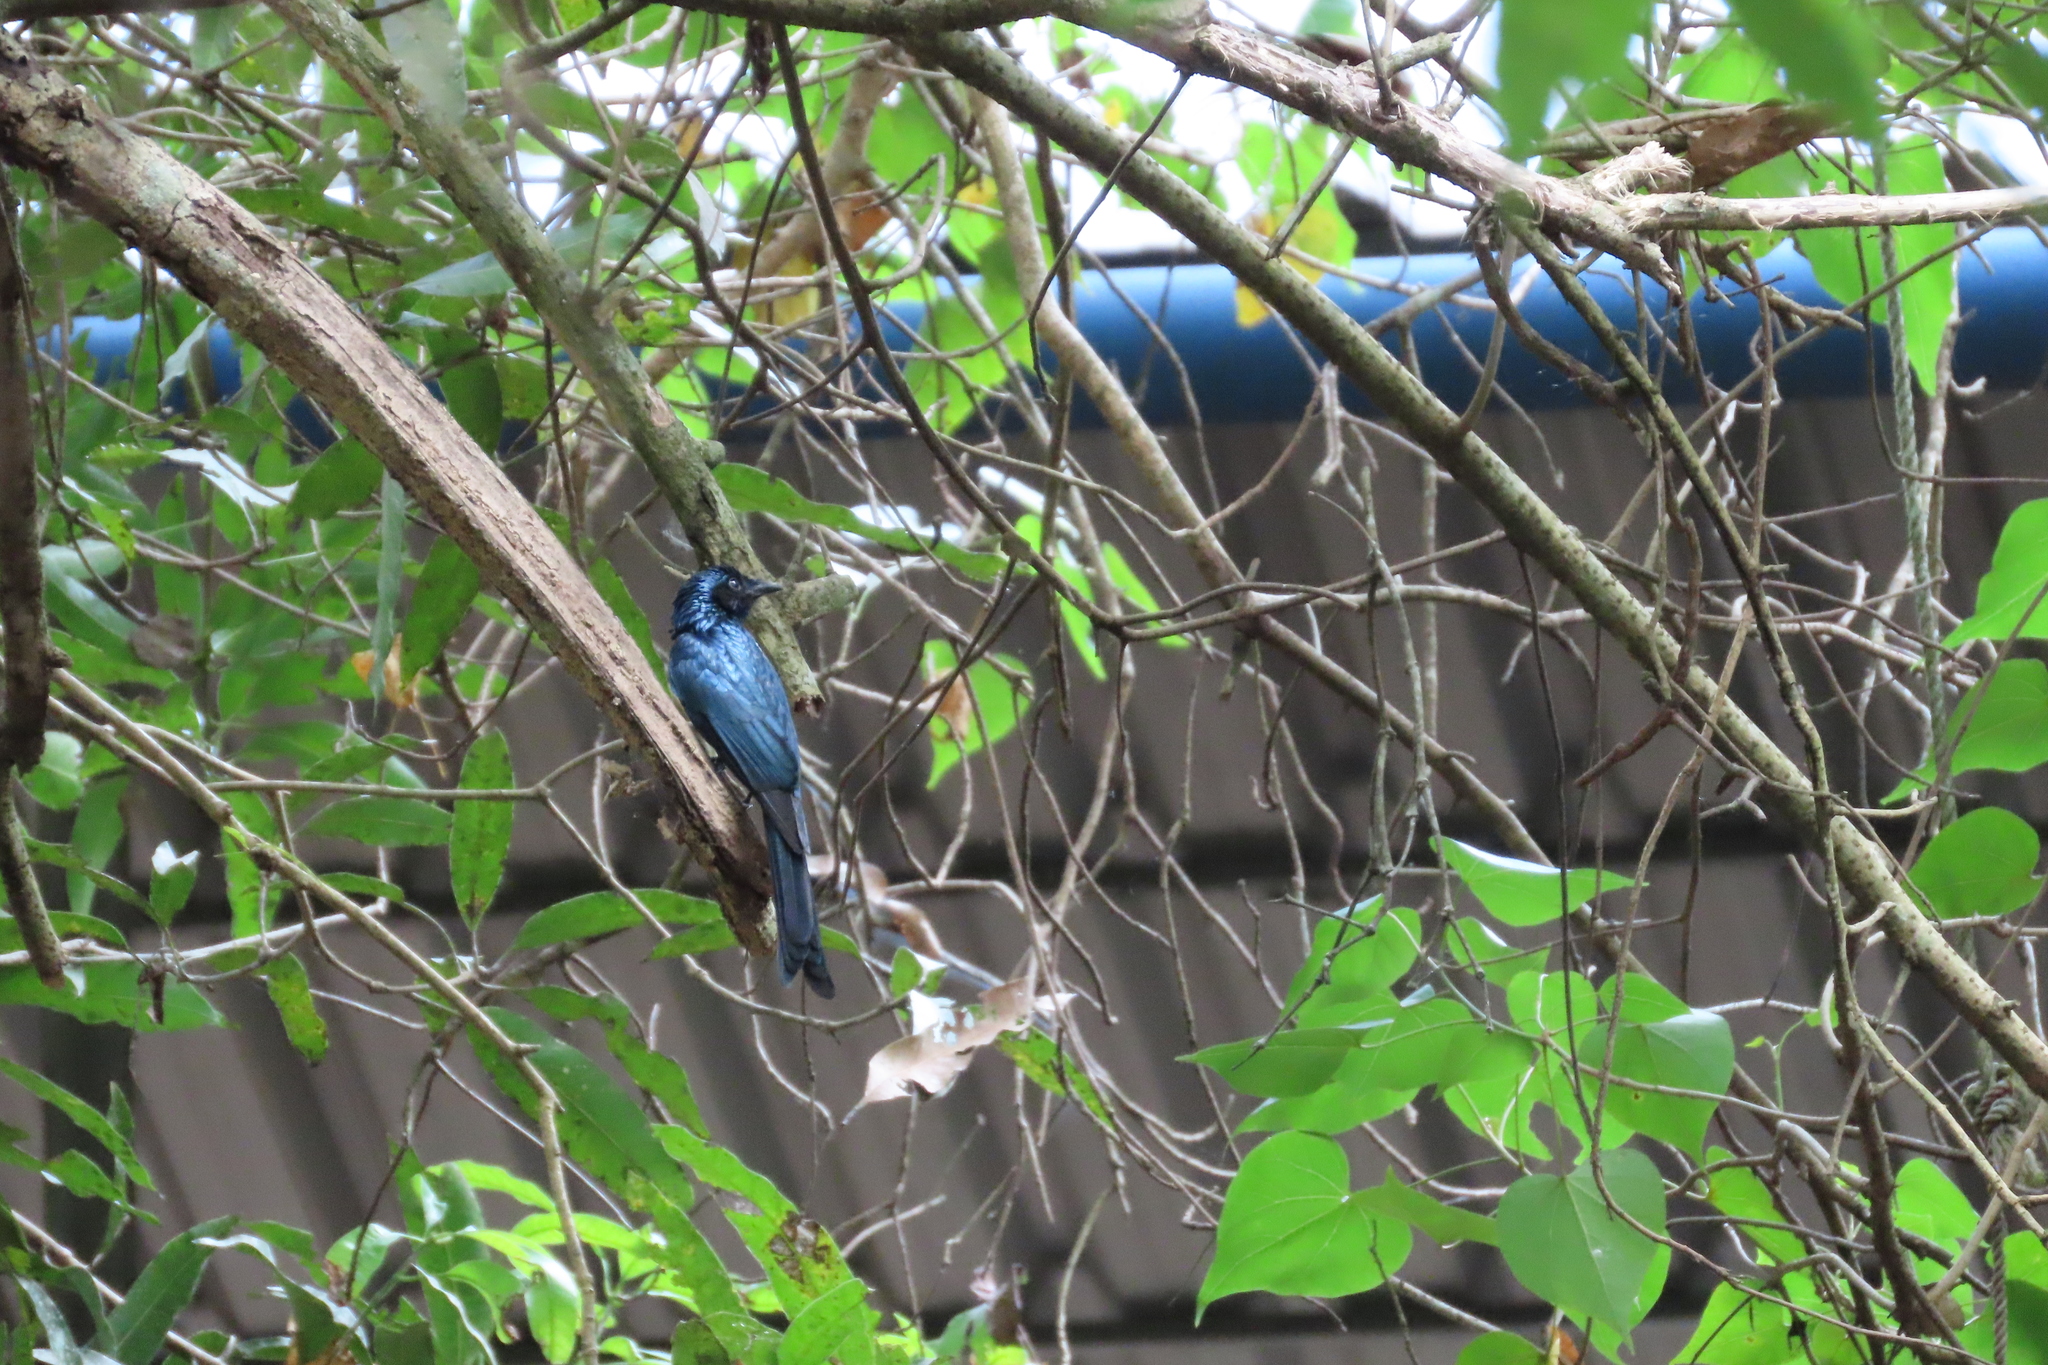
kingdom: Animalia
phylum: Chordata
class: Aves
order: Passeriformes
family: Dicruridae
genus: Dicrurus
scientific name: Dicrurus aeneus
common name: Bronzed drongo
